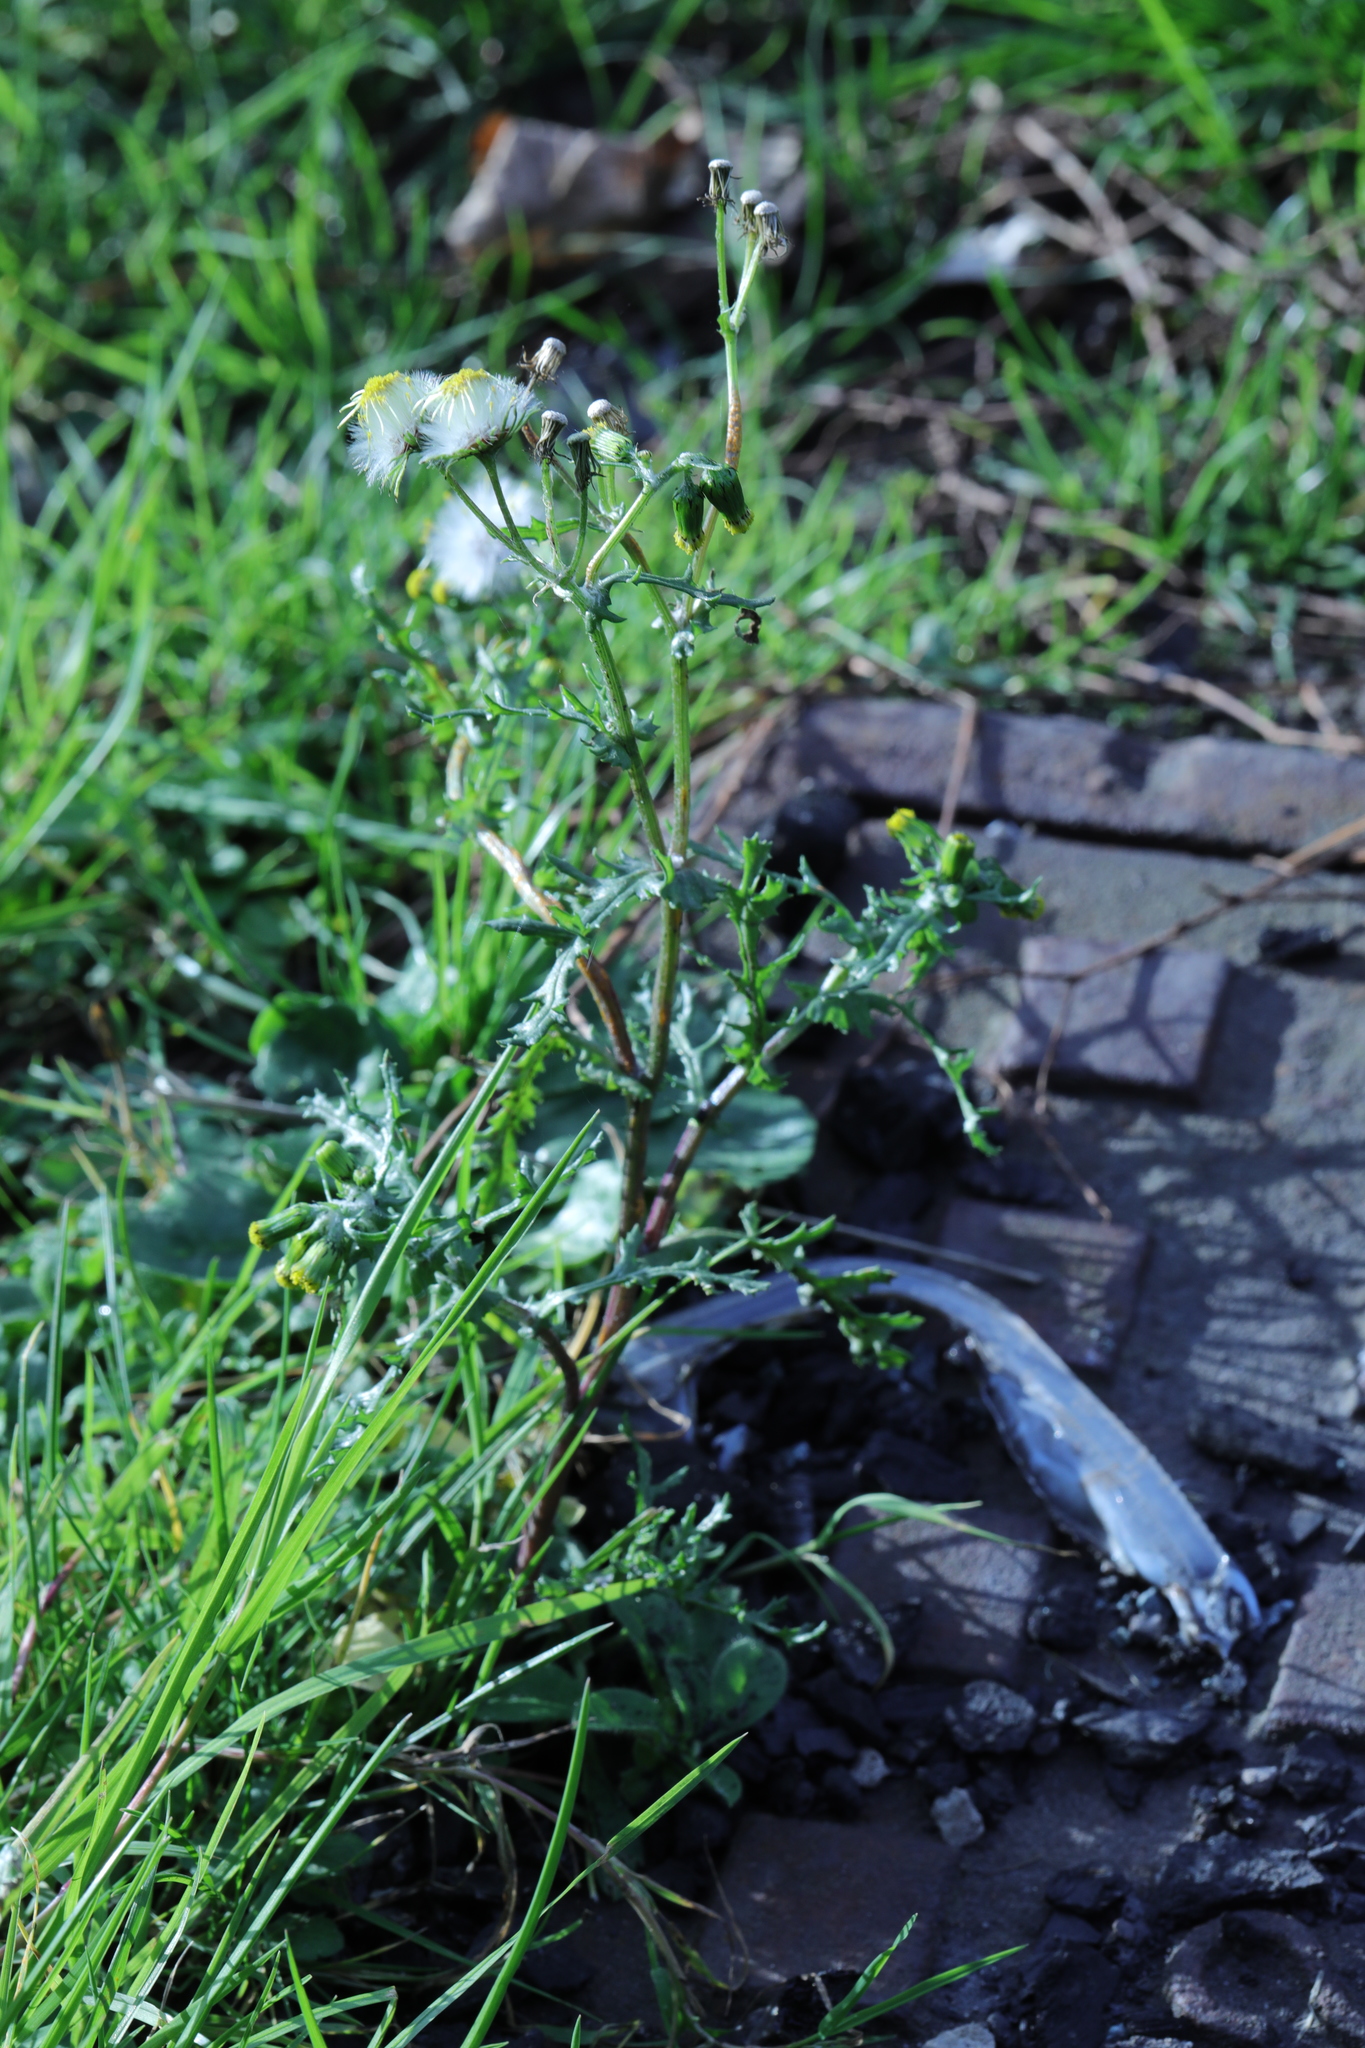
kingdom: Plantae
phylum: Tracheophyta
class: Magnoliopsida
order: Asterales
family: Asteraceae
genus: Senecio
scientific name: Senecio vulgaris
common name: Old-man-in-the-spring
